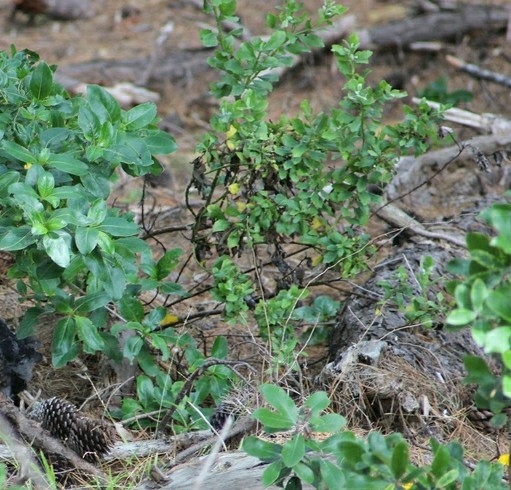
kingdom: Plantae
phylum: Tracheophyta
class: Magnoliopsida
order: Asterales
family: Asteraceae
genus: Osteospermum
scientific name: Osteospermum moniliferum
